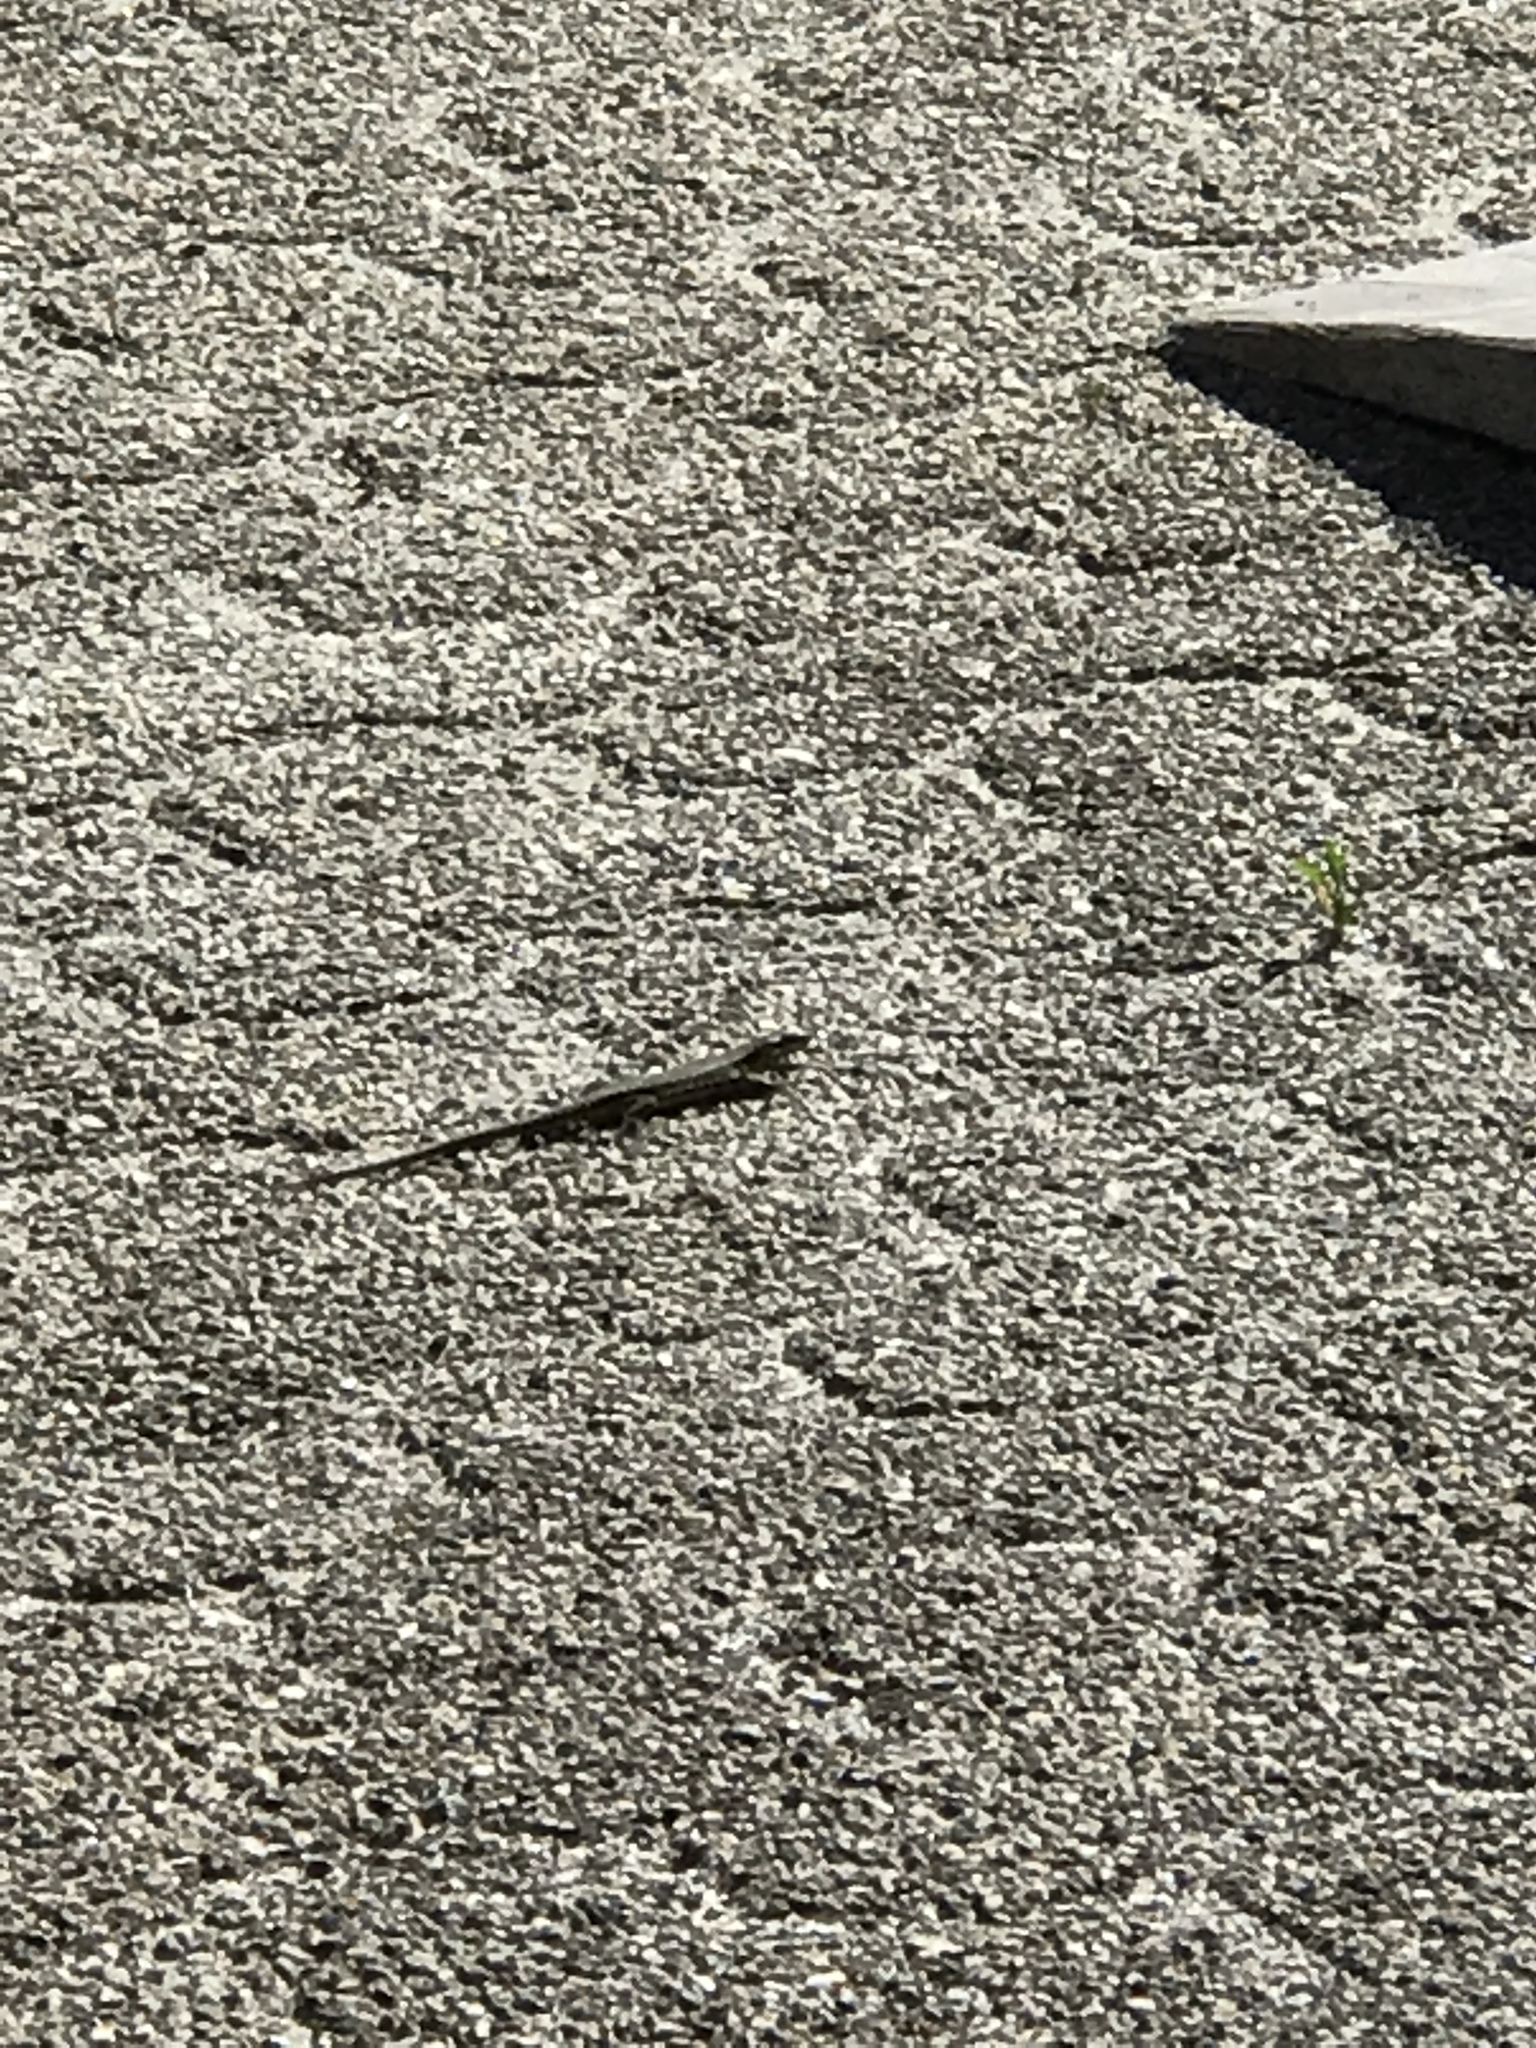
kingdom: Animalia
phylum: Chordata
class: Squamata
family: Lacertidae
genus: Podarcis
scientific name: Podarcis muralis
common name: Common wall lizard
